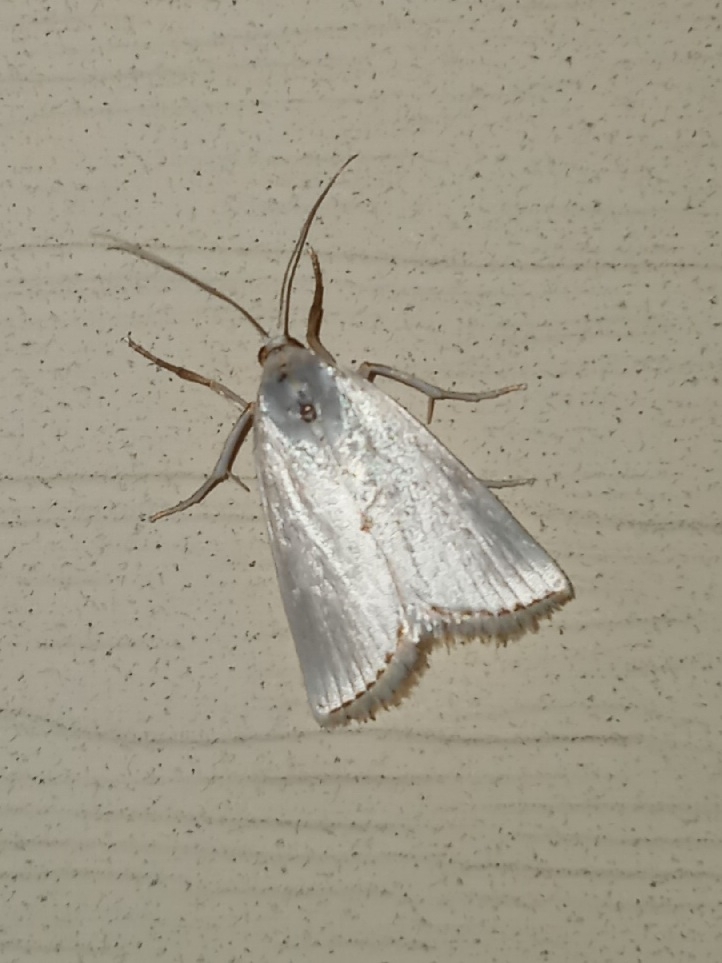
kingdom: Animalia
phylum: Arthropoda
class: Insecta
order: Lepidoptera
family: Crambidae
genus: Argyria
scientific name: Argyria nivalis
